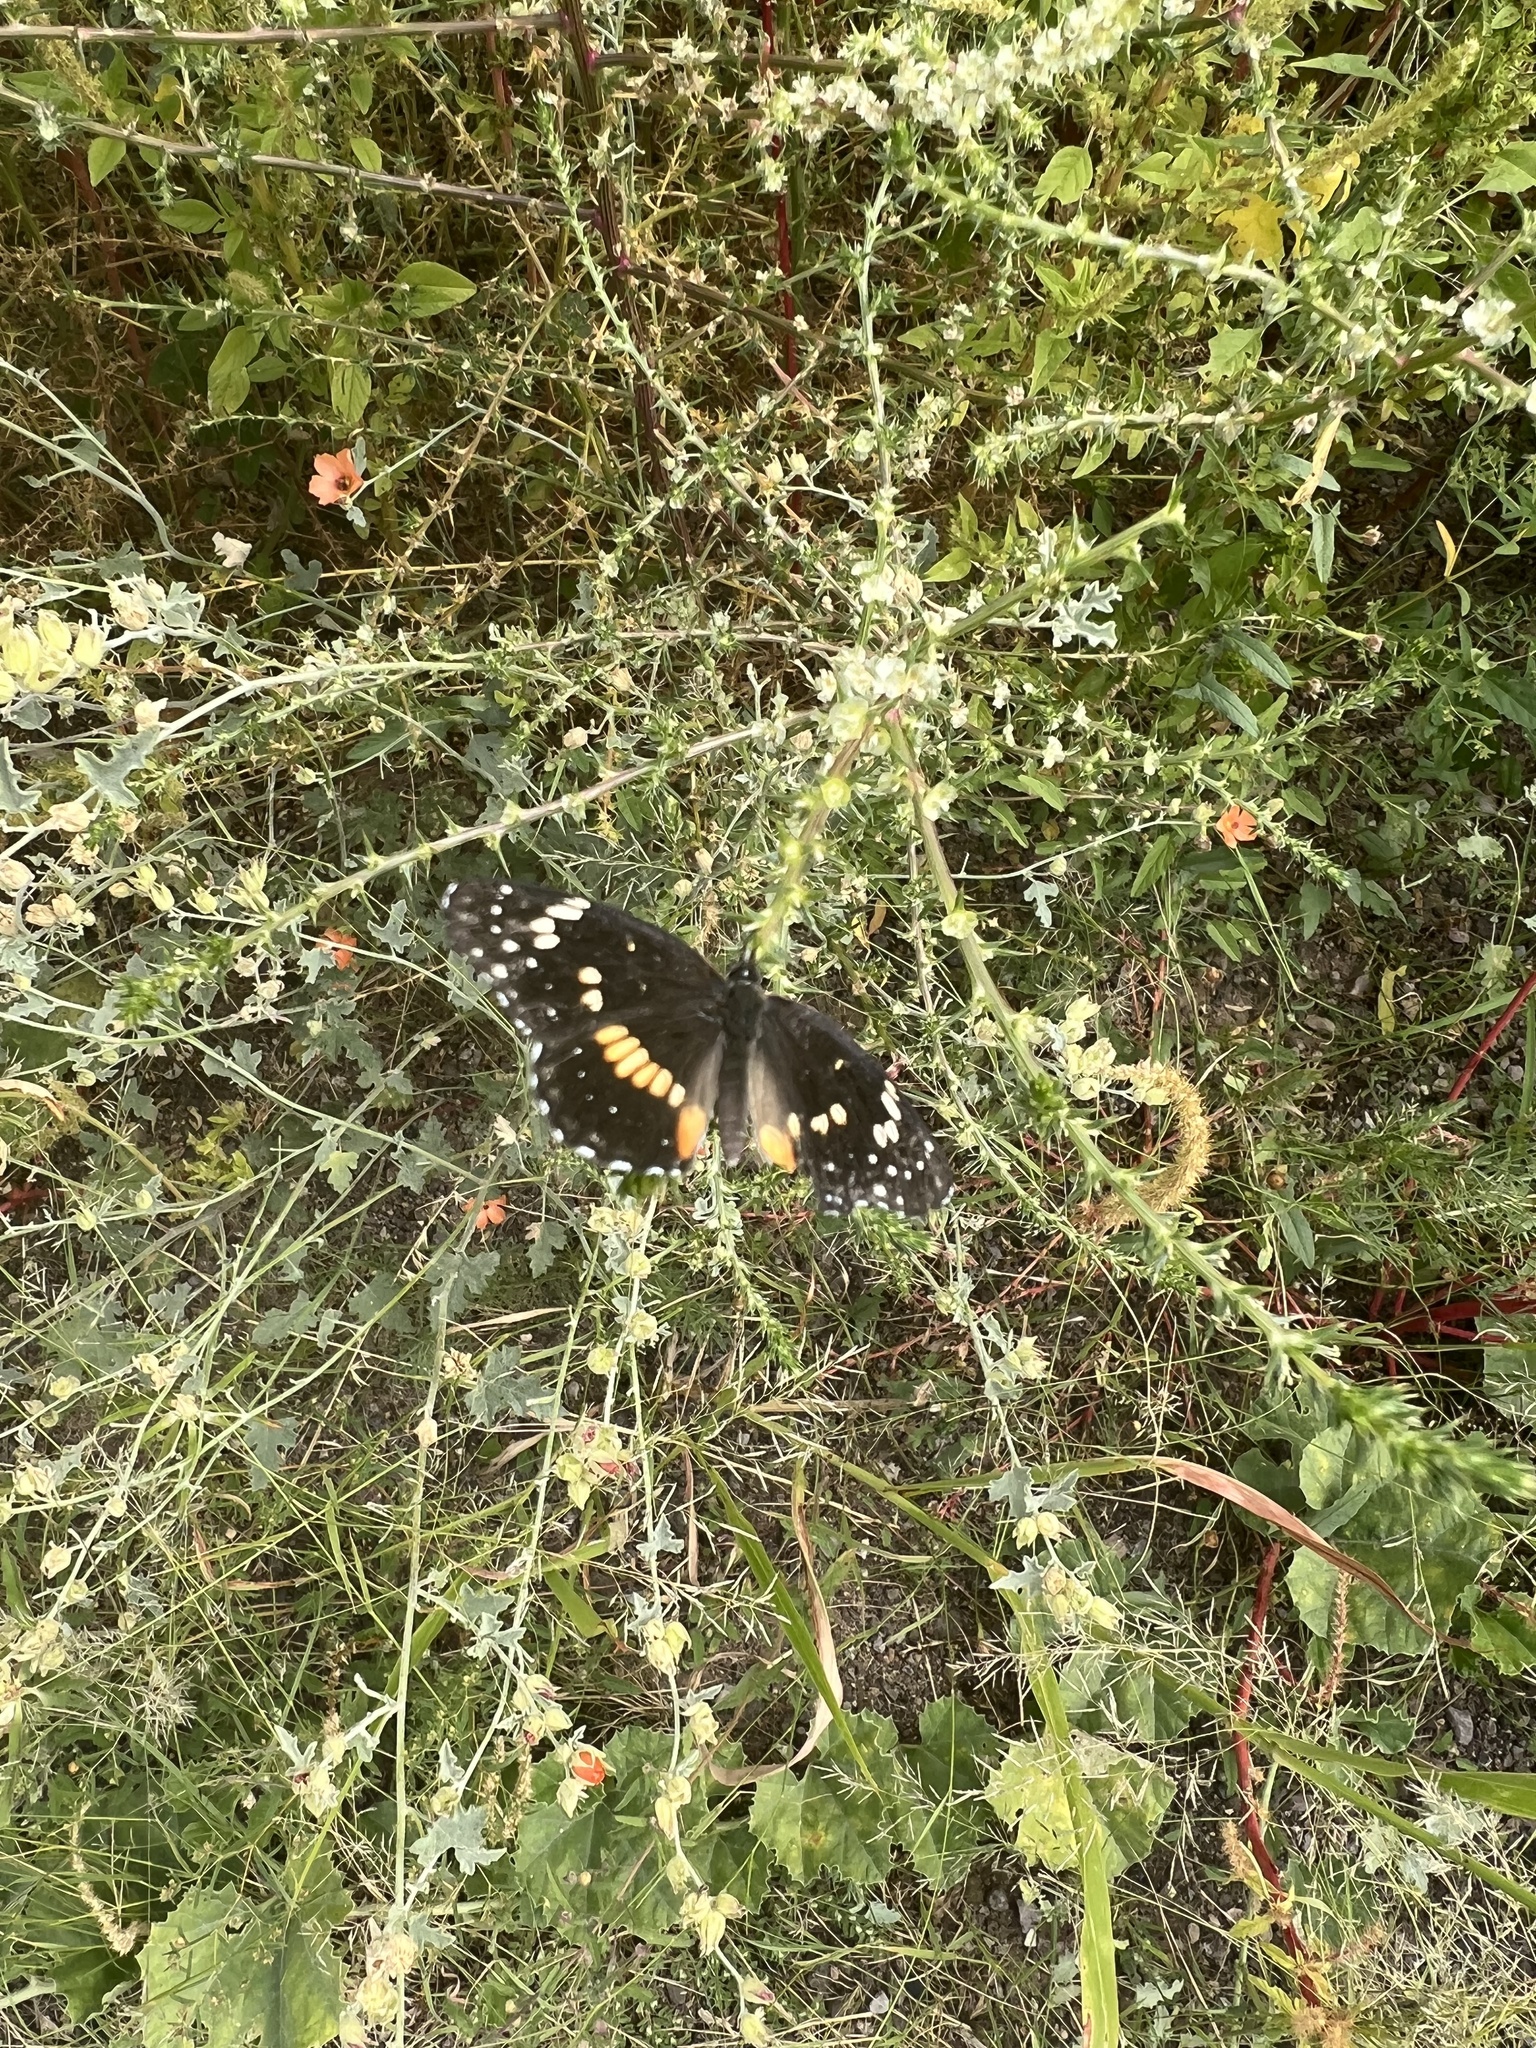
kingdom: Animalia
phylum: Arthropoda
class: Insecta
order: Lepidoptera
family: Nymphalidae
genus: Chlosyne
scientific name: Chlosyne lacinia
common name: Bordered patch
